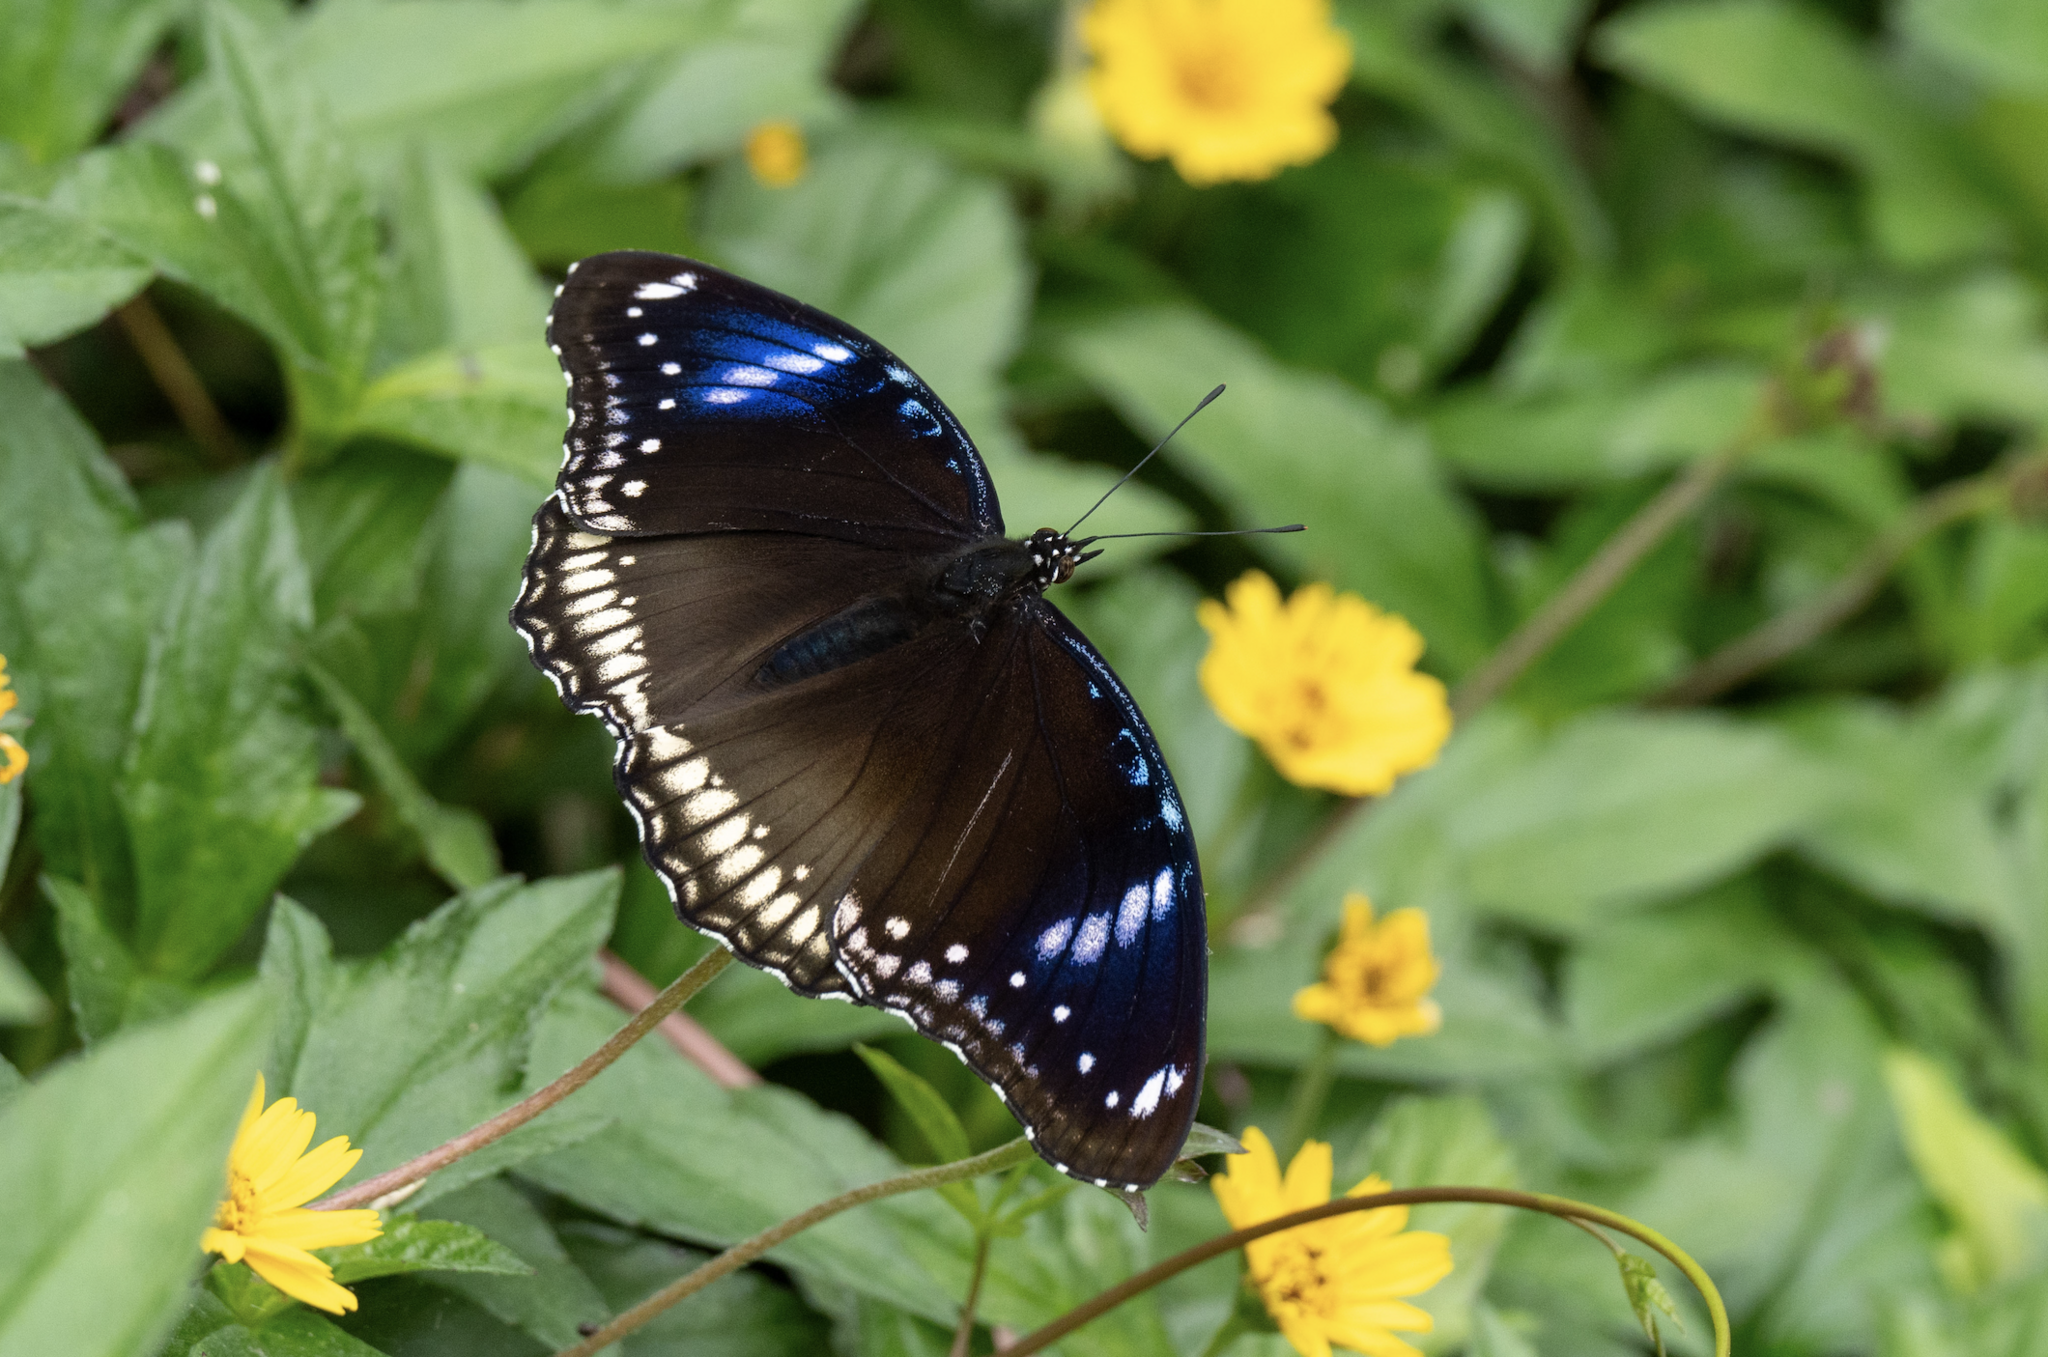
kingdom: Animalia
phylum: Arthropoda
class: Insecta
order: Lepidoptera
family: Nymphalidae
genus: Hypolimnas
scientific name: Hypolimnas bolina
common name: Great eggfly
